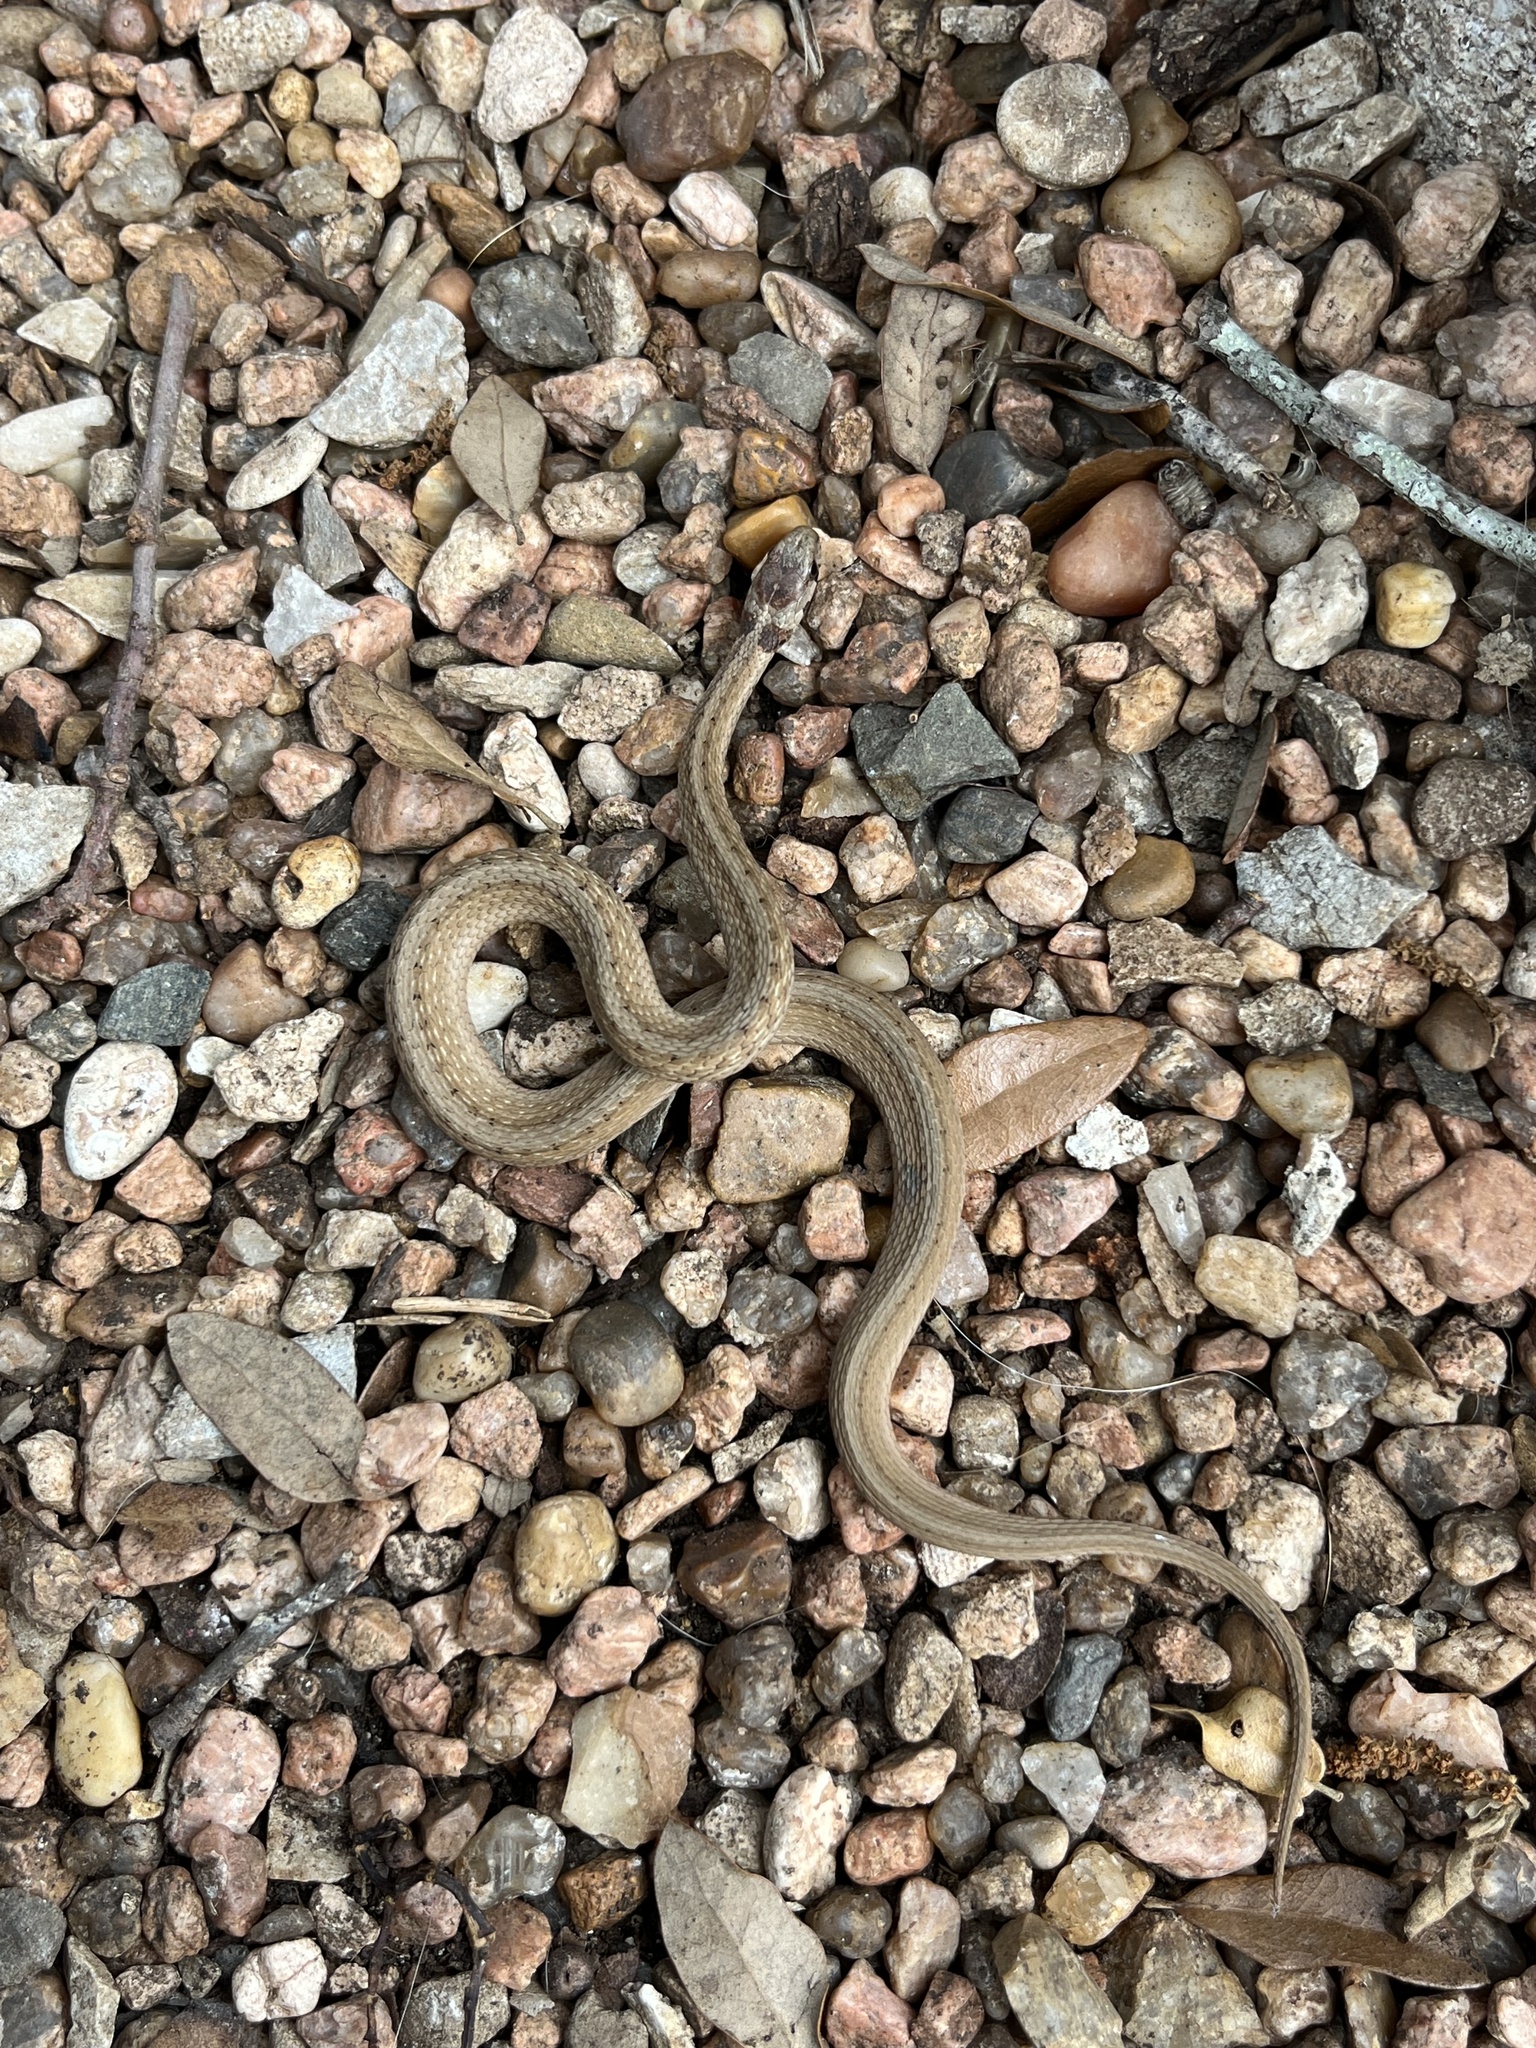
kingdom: Animalia
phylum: Chordata
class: Squamata
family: Colubridae
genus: Storeria
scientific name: Storeria dekayi
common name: (dekay’s) brown snake
